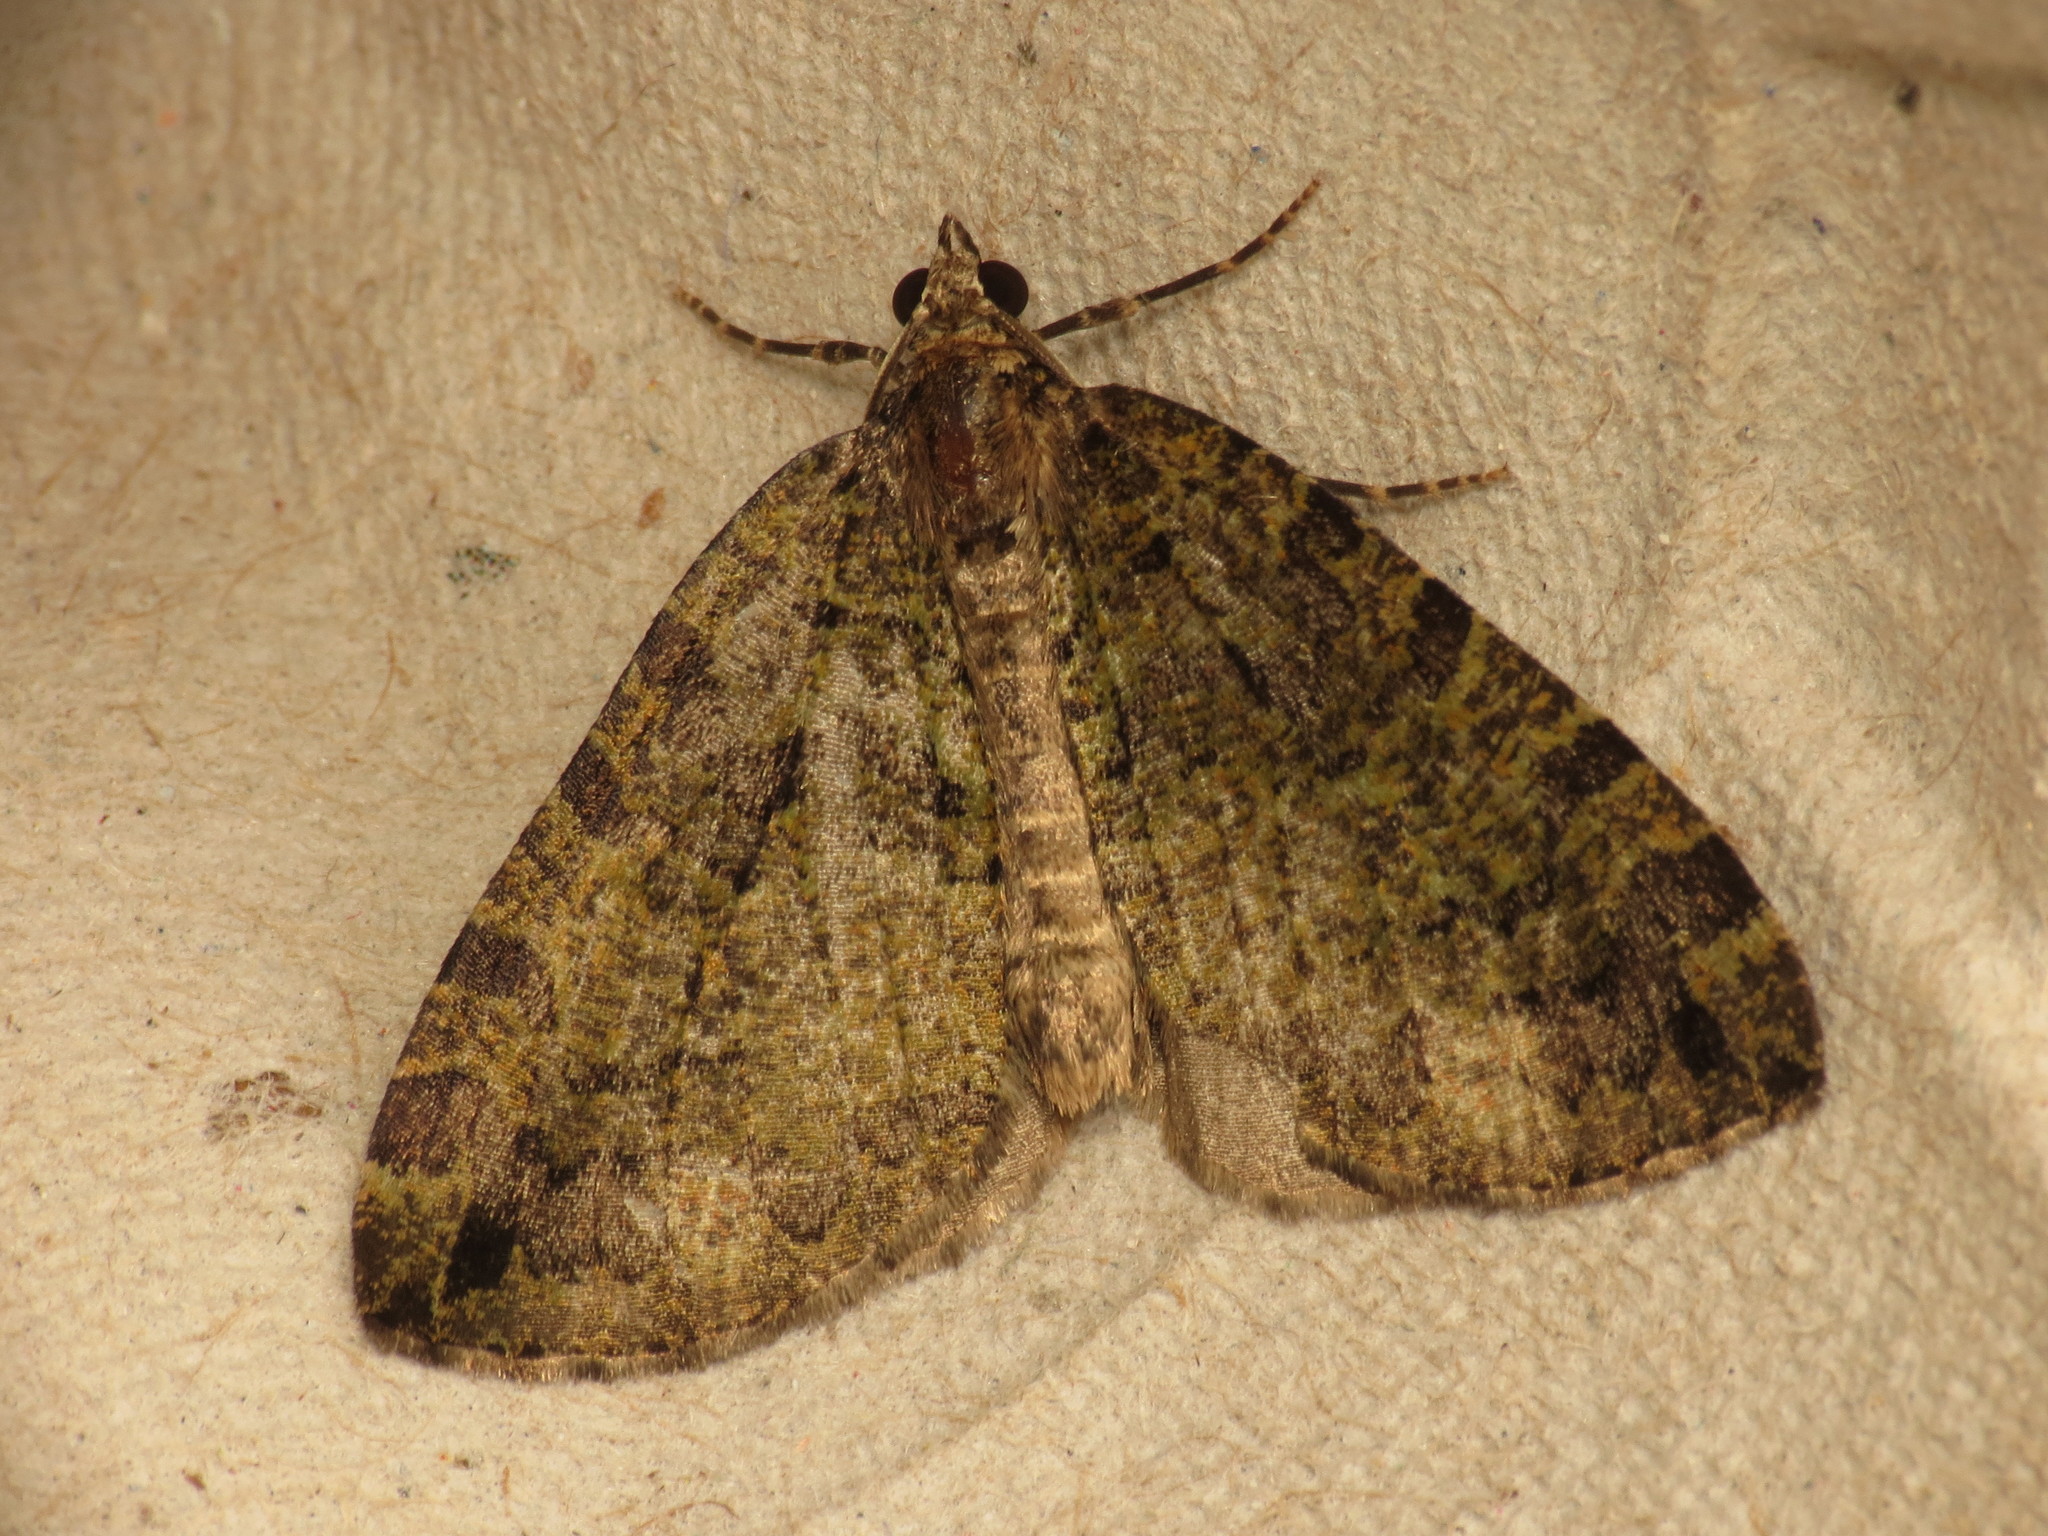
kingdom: Animalia
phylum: Arthropoda
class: Insecta
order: Lepidoptera
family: Geometridae
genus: Hydriomena
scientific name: Hydriomena furcata
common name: July highflyer
